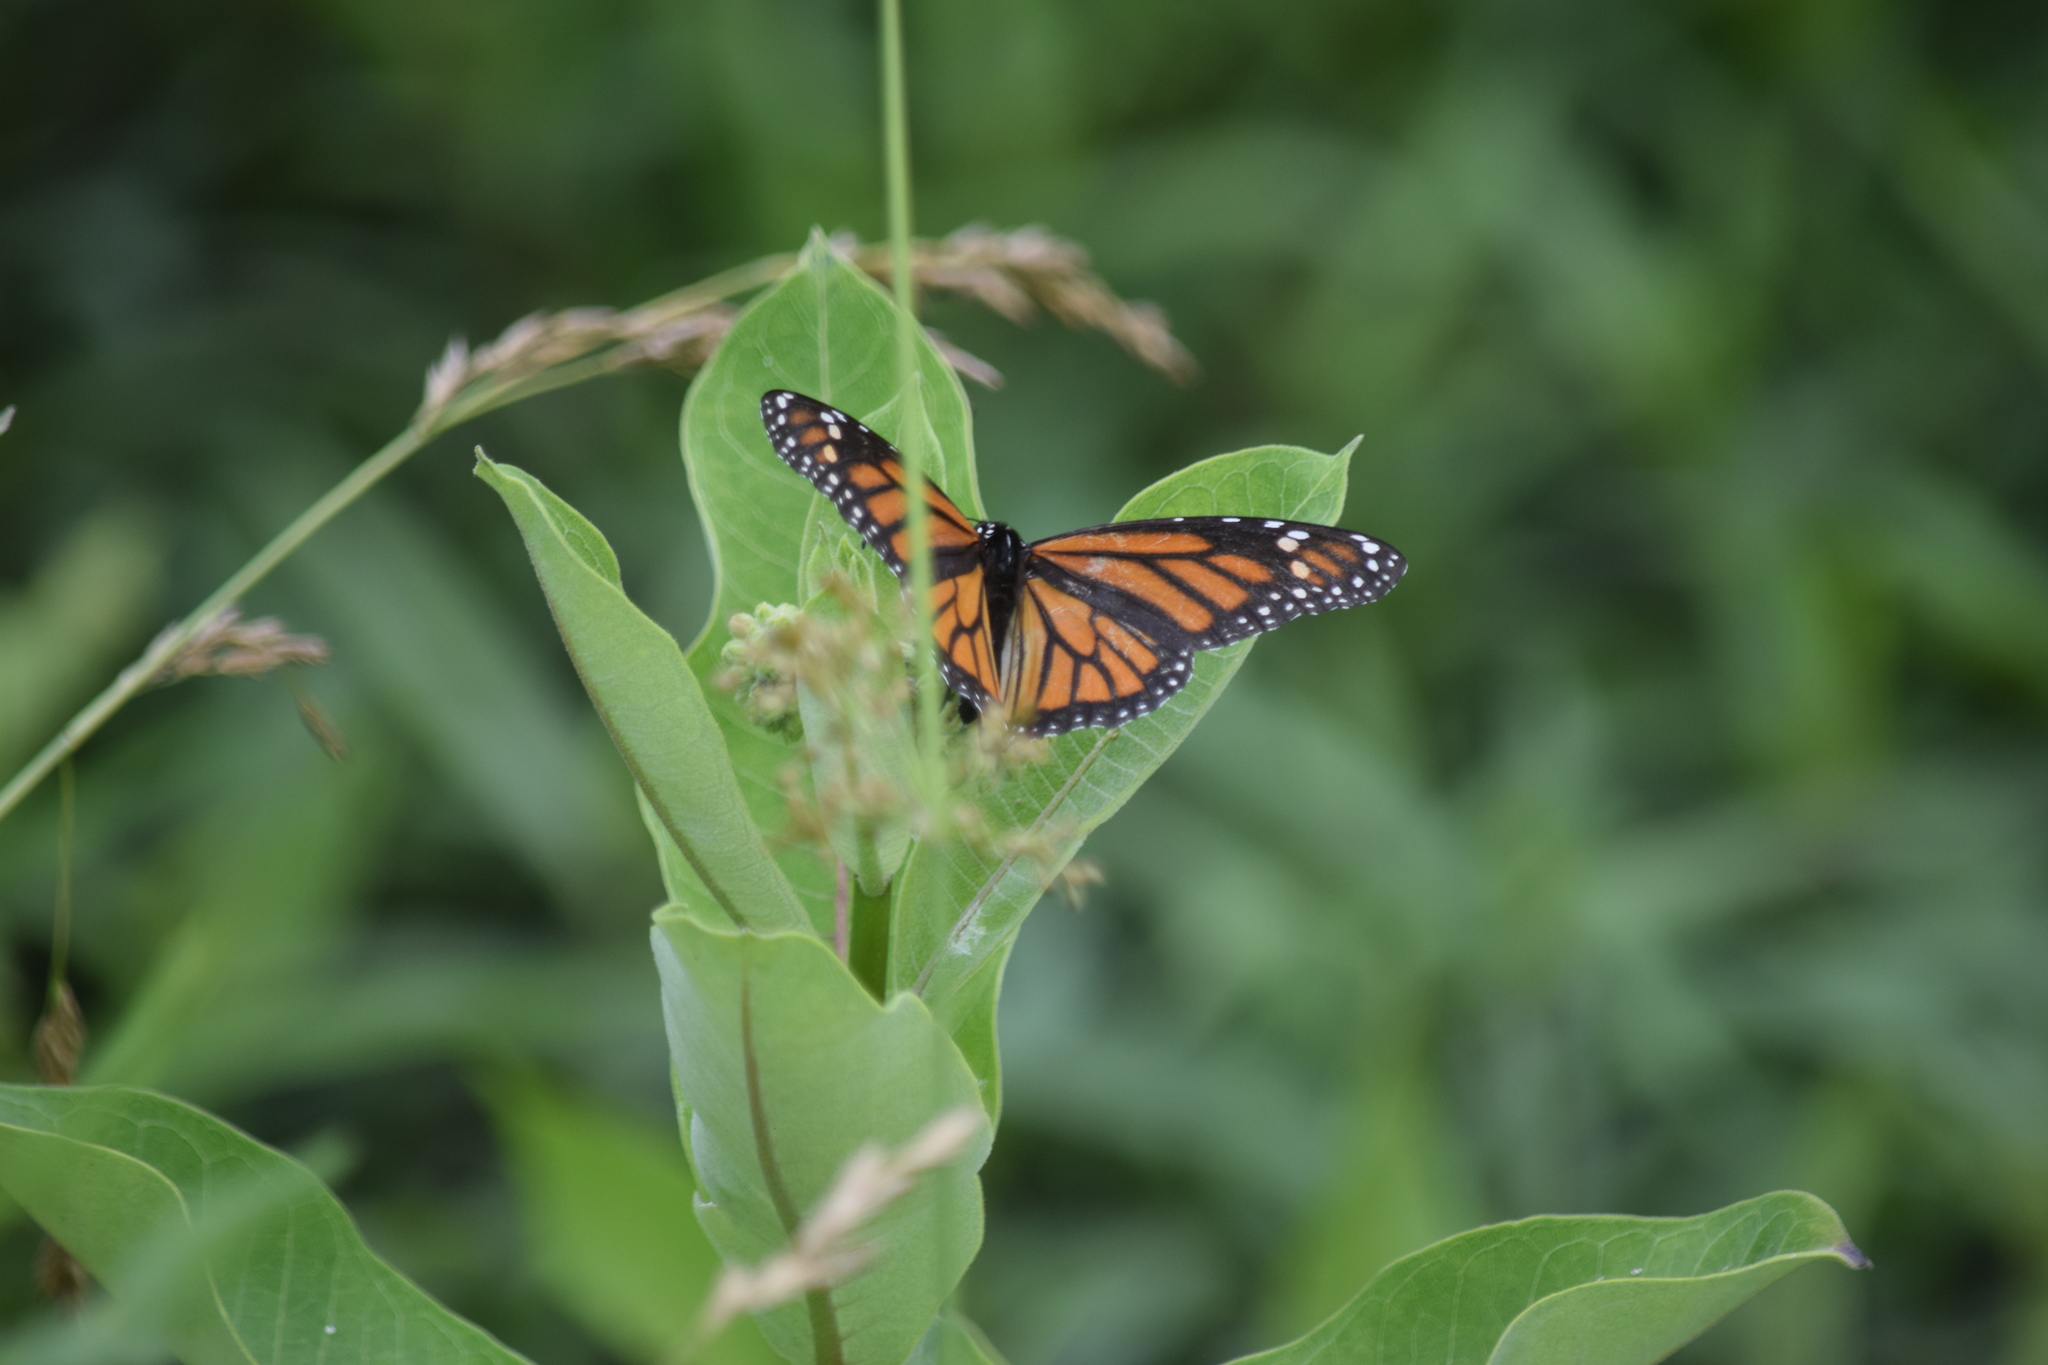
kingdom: Animalia
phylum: Arthropoda
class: Insecta
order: Lepidoptera
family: Nymphalidae
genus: Danaus
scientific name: Danaus plexippus
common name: Monarch
